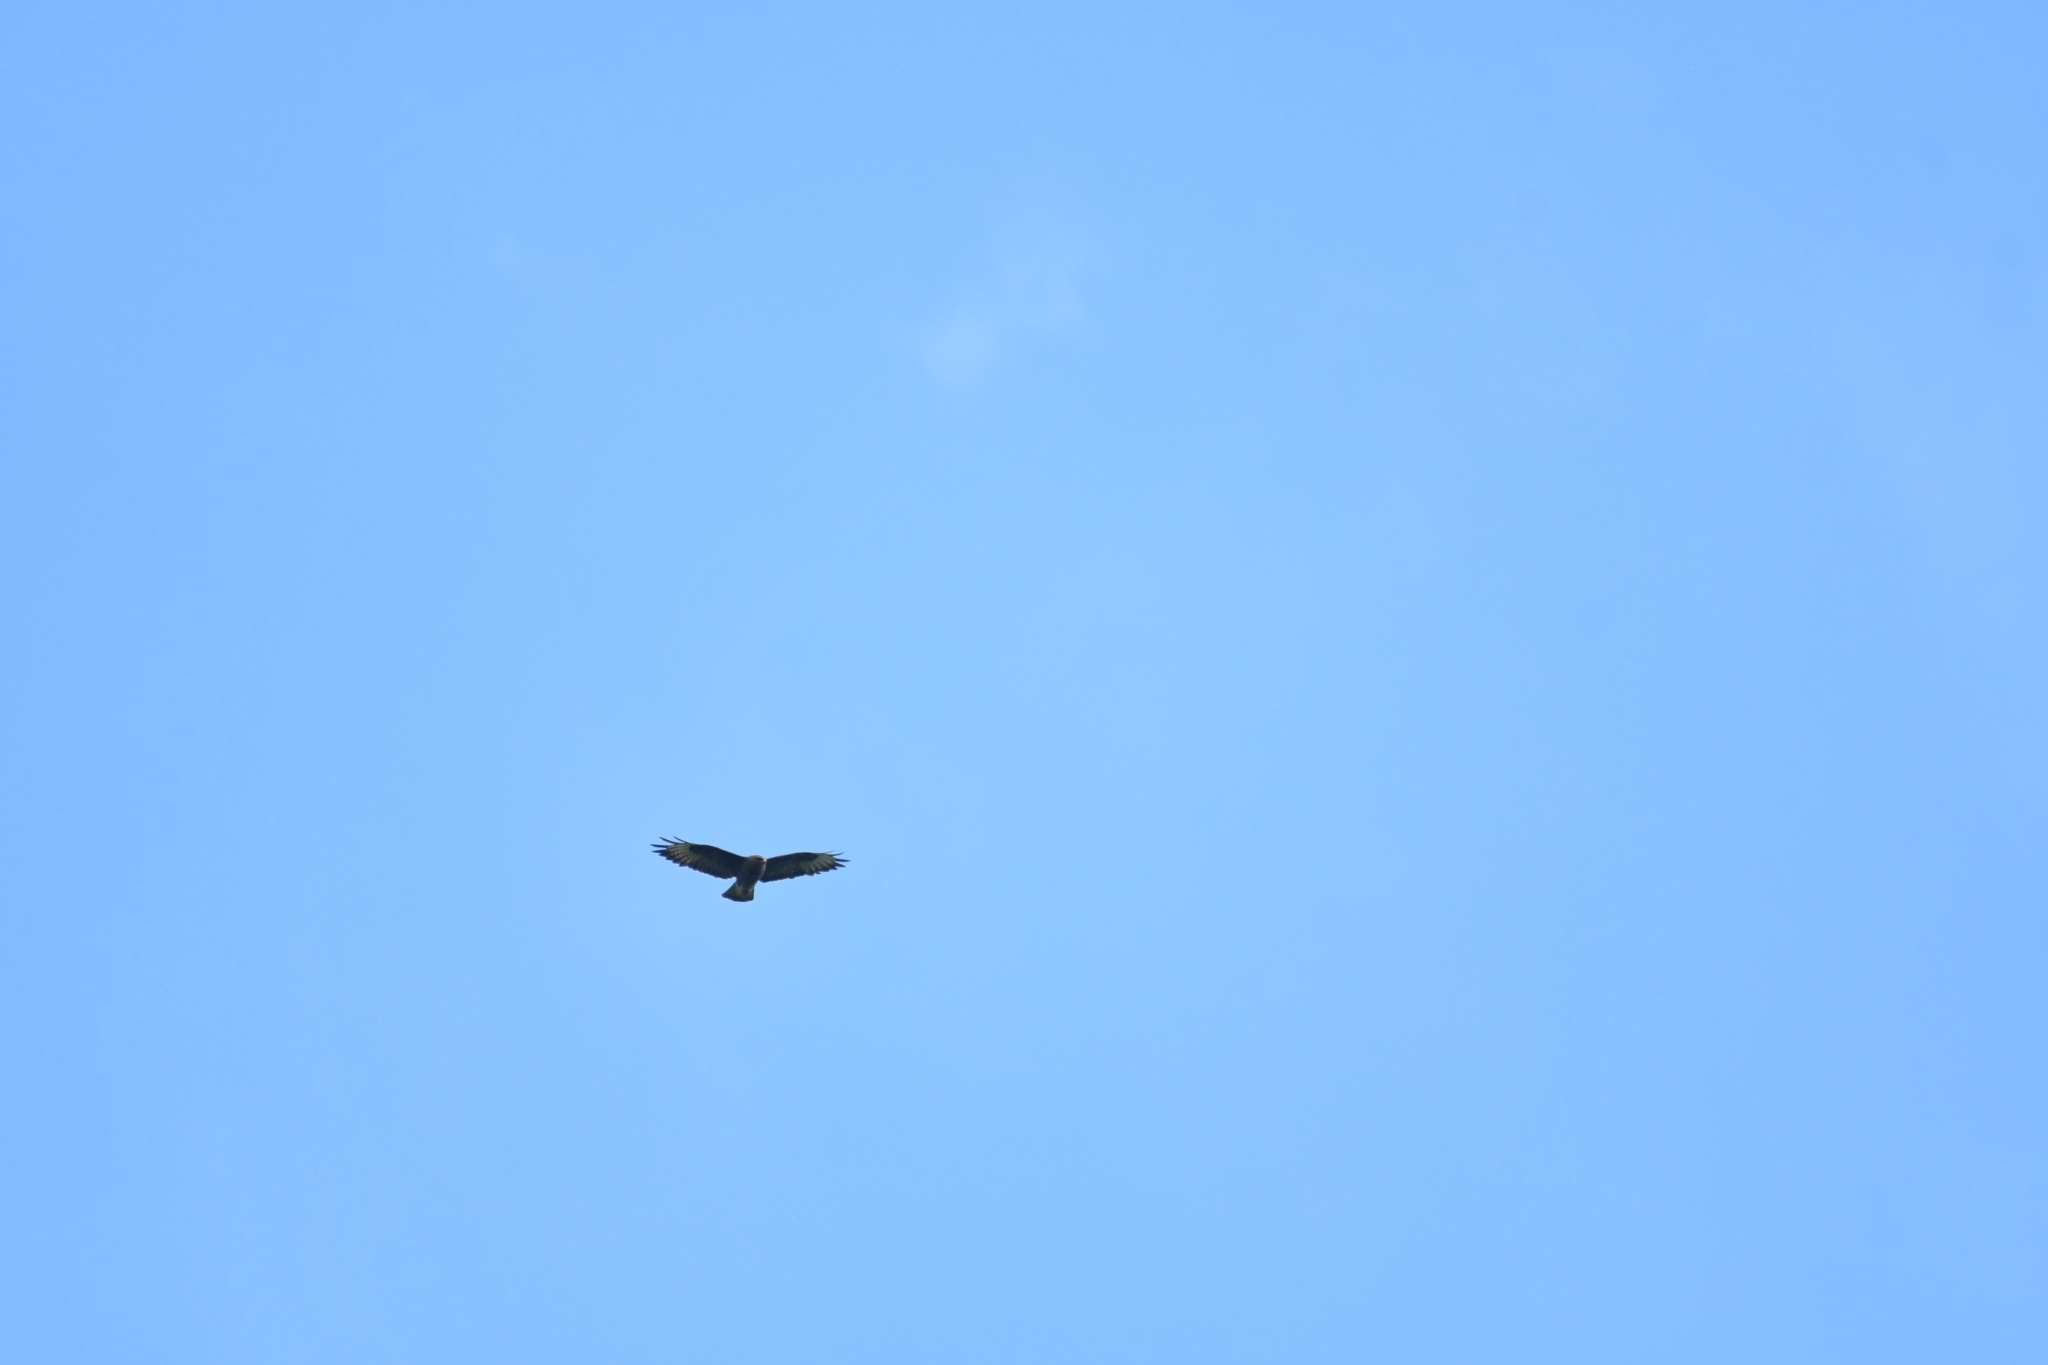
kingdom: Animalia
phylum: Chordata
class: Aves
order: Accipitriformes
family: Accipitridae
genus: Buteo
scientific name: Buteo buteo
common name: Common buzzard
